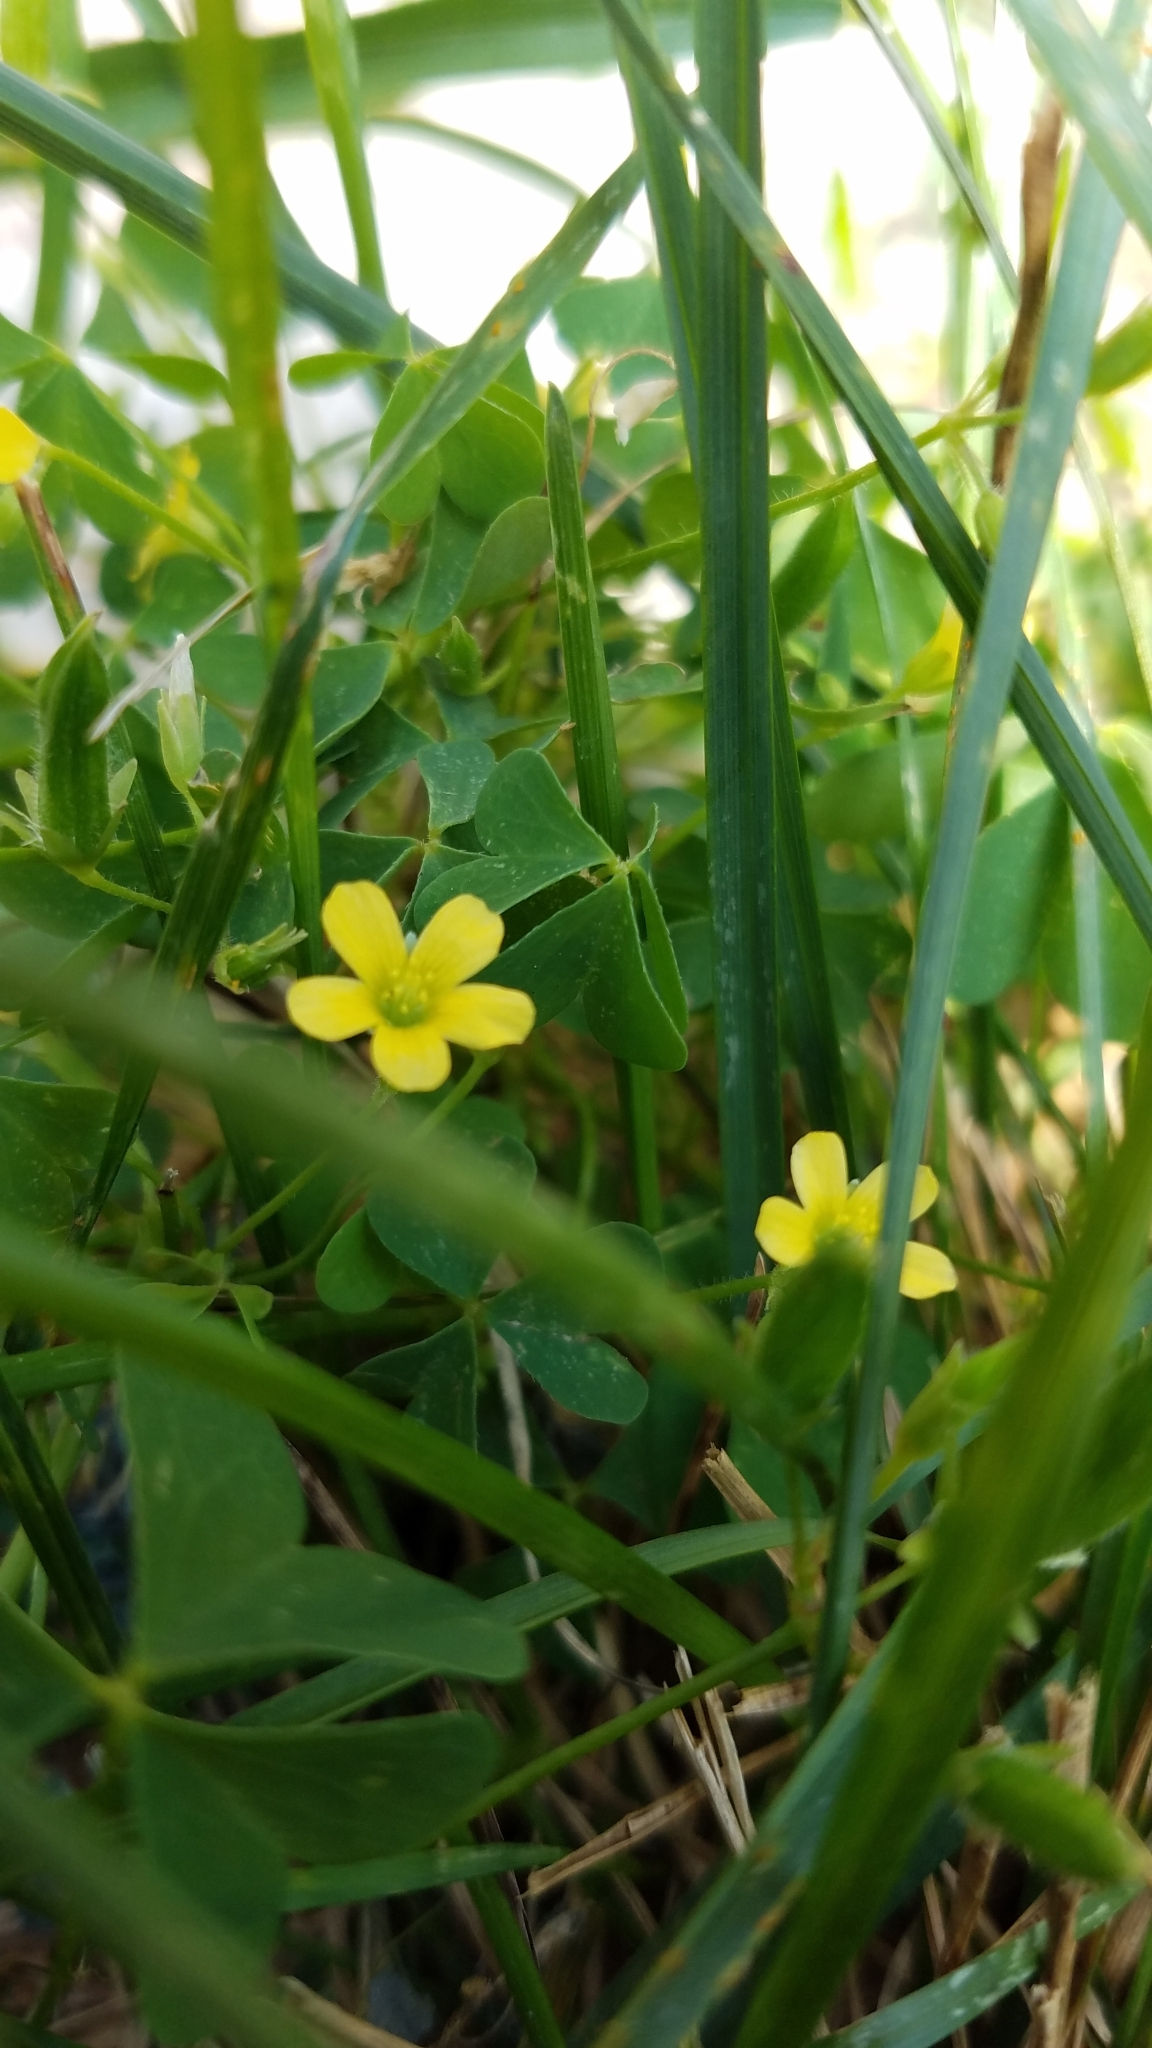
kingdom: Plantae
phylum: Tracheophyta
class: Magnoliopsida
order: Oxalidales
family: Oxalidaceae
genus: Oxalis
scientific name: Oxalis corniculata
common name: Procumbent yellow-sorrel
